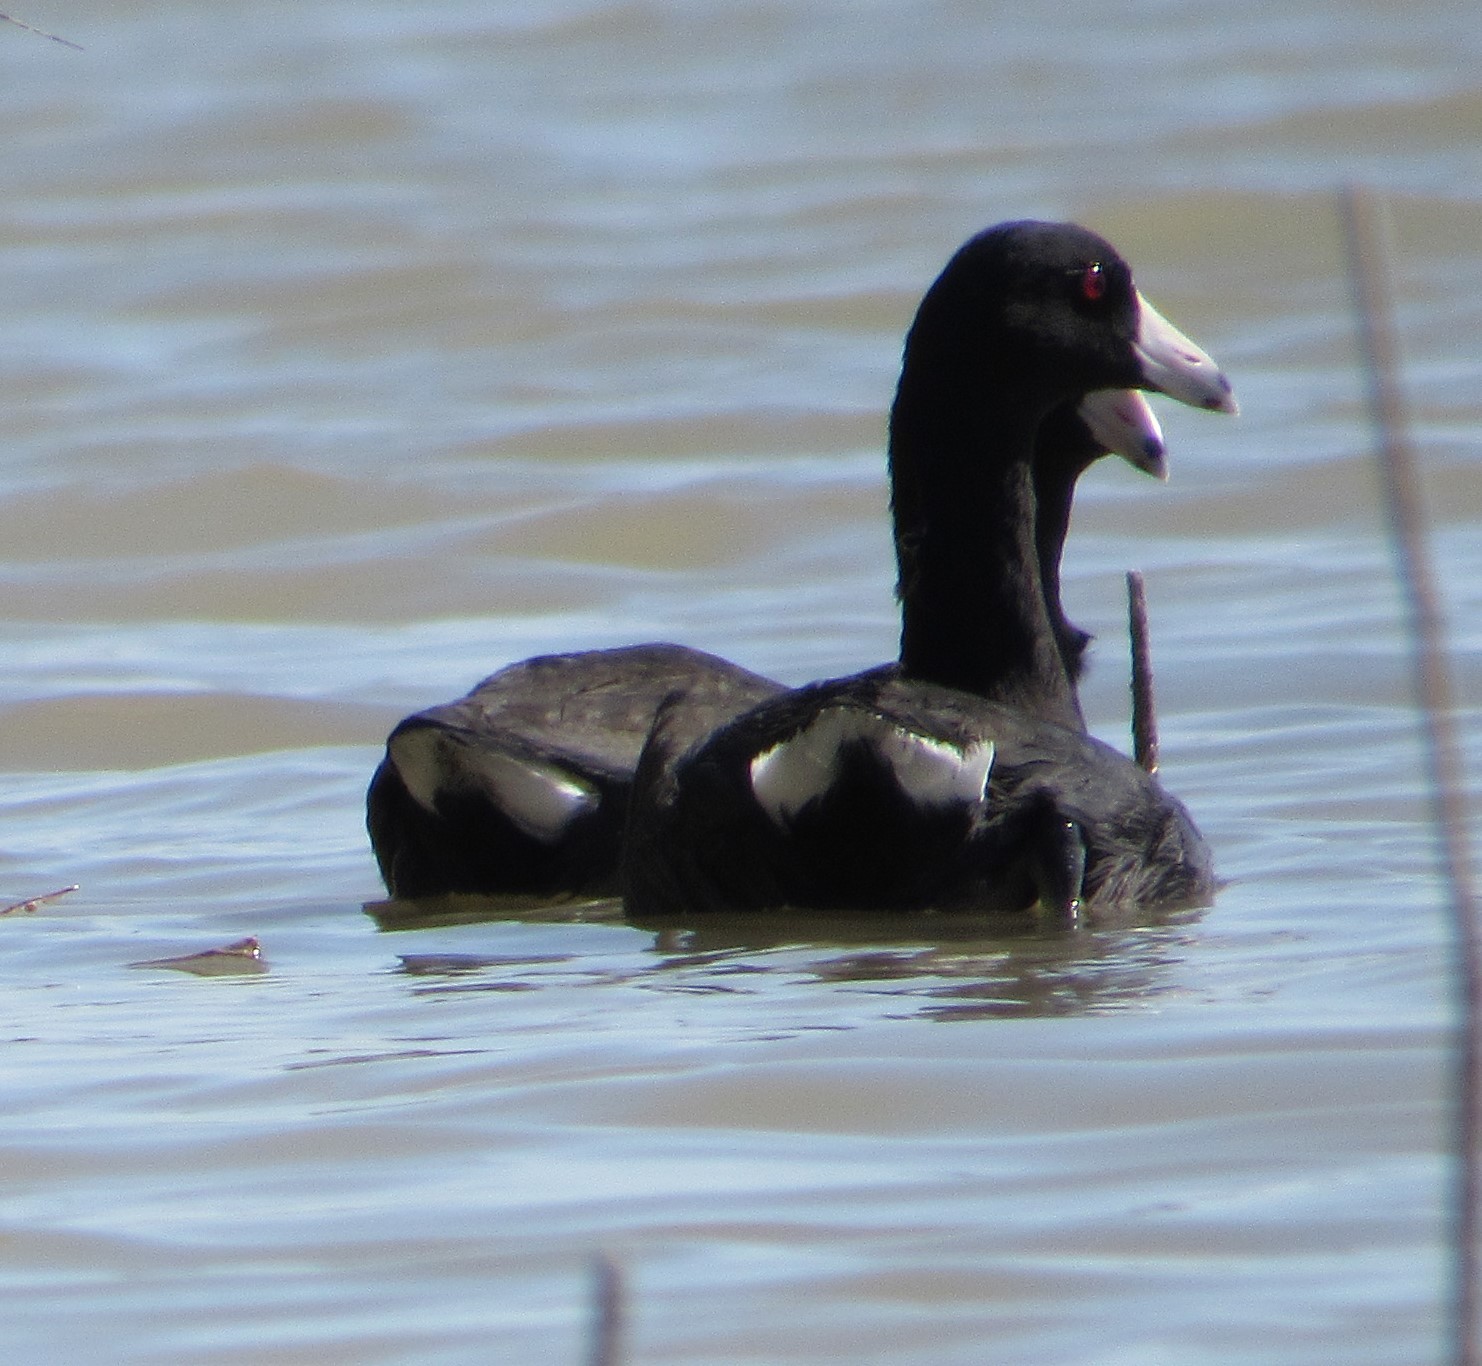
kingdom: Animalia
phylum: Chordata
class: Aves
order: Gruiformes
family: Rallidae
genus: Fulica
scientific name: Fulica americana
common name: American coot
